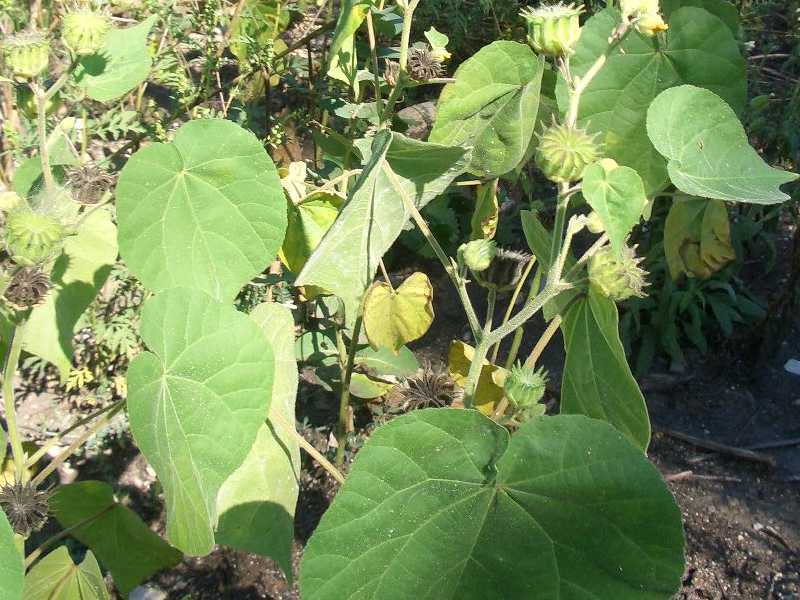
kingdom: Plantae
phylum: Tracheophyta
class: Magnoliopsida
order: Malvales
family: Malvaceae
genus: Abutilon
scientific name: Abutilon theophrasti
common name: Velvetleaf
